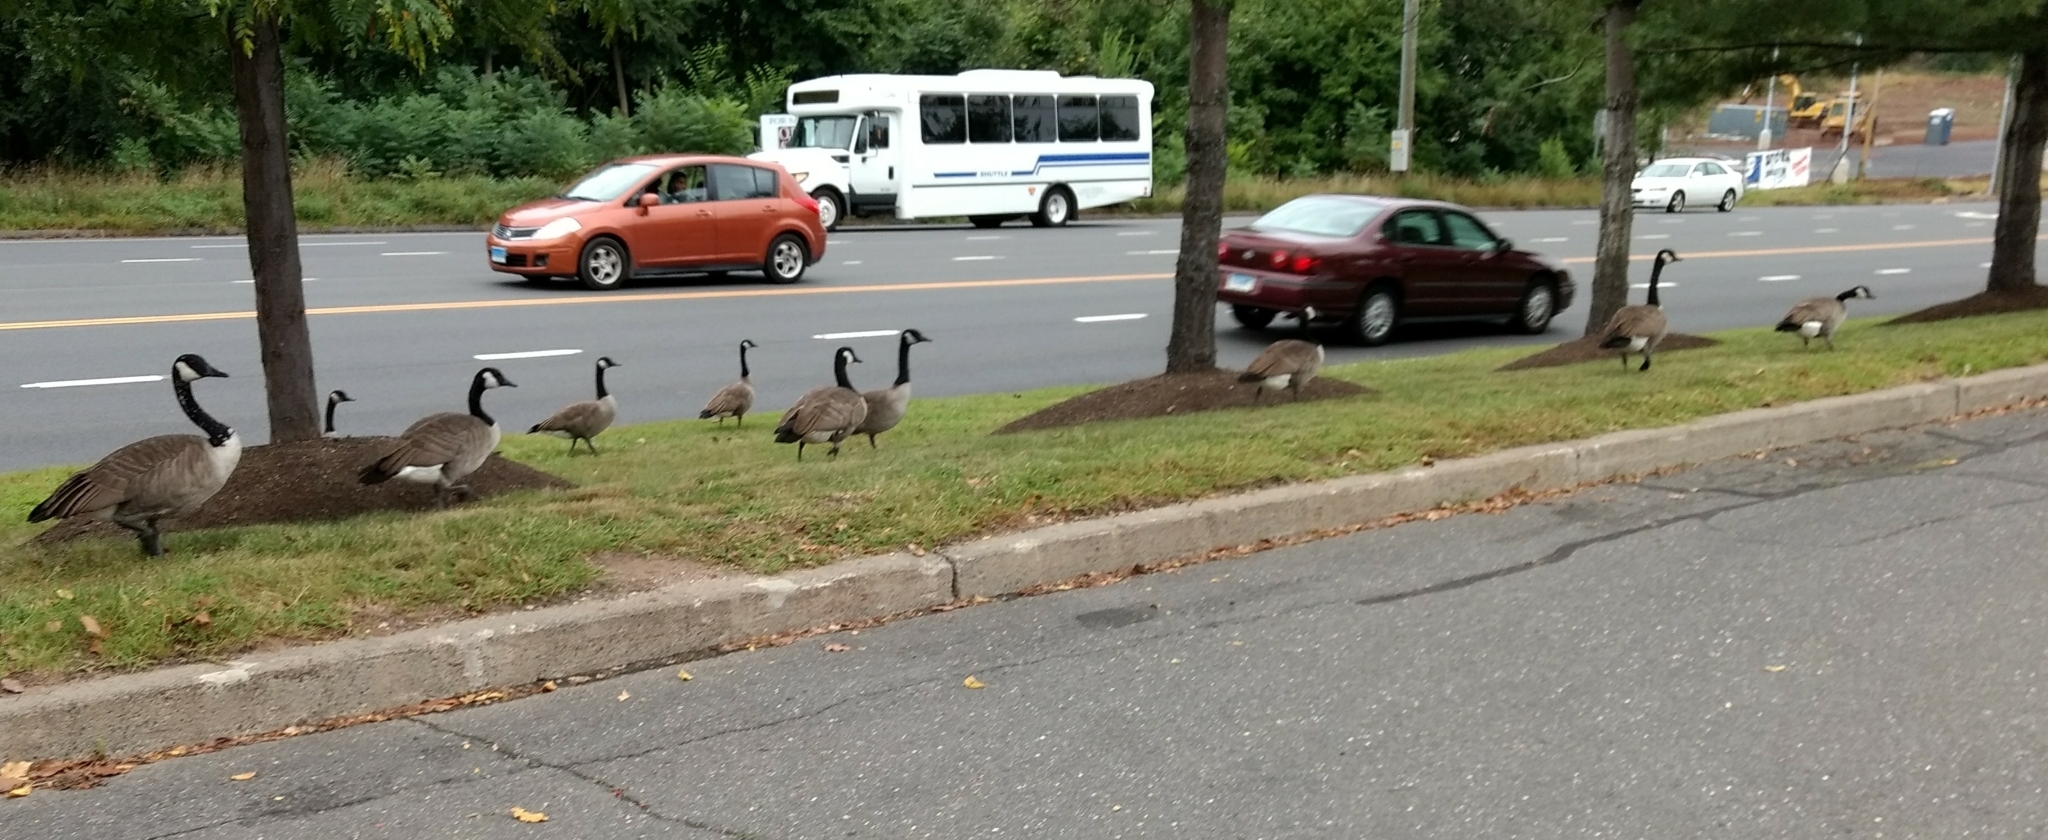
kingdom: Animalia
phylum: Chordata
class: Aves
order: Anseriformes
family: Anatidae
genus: Branta
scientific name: Branta canadensis
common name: Canada goose
